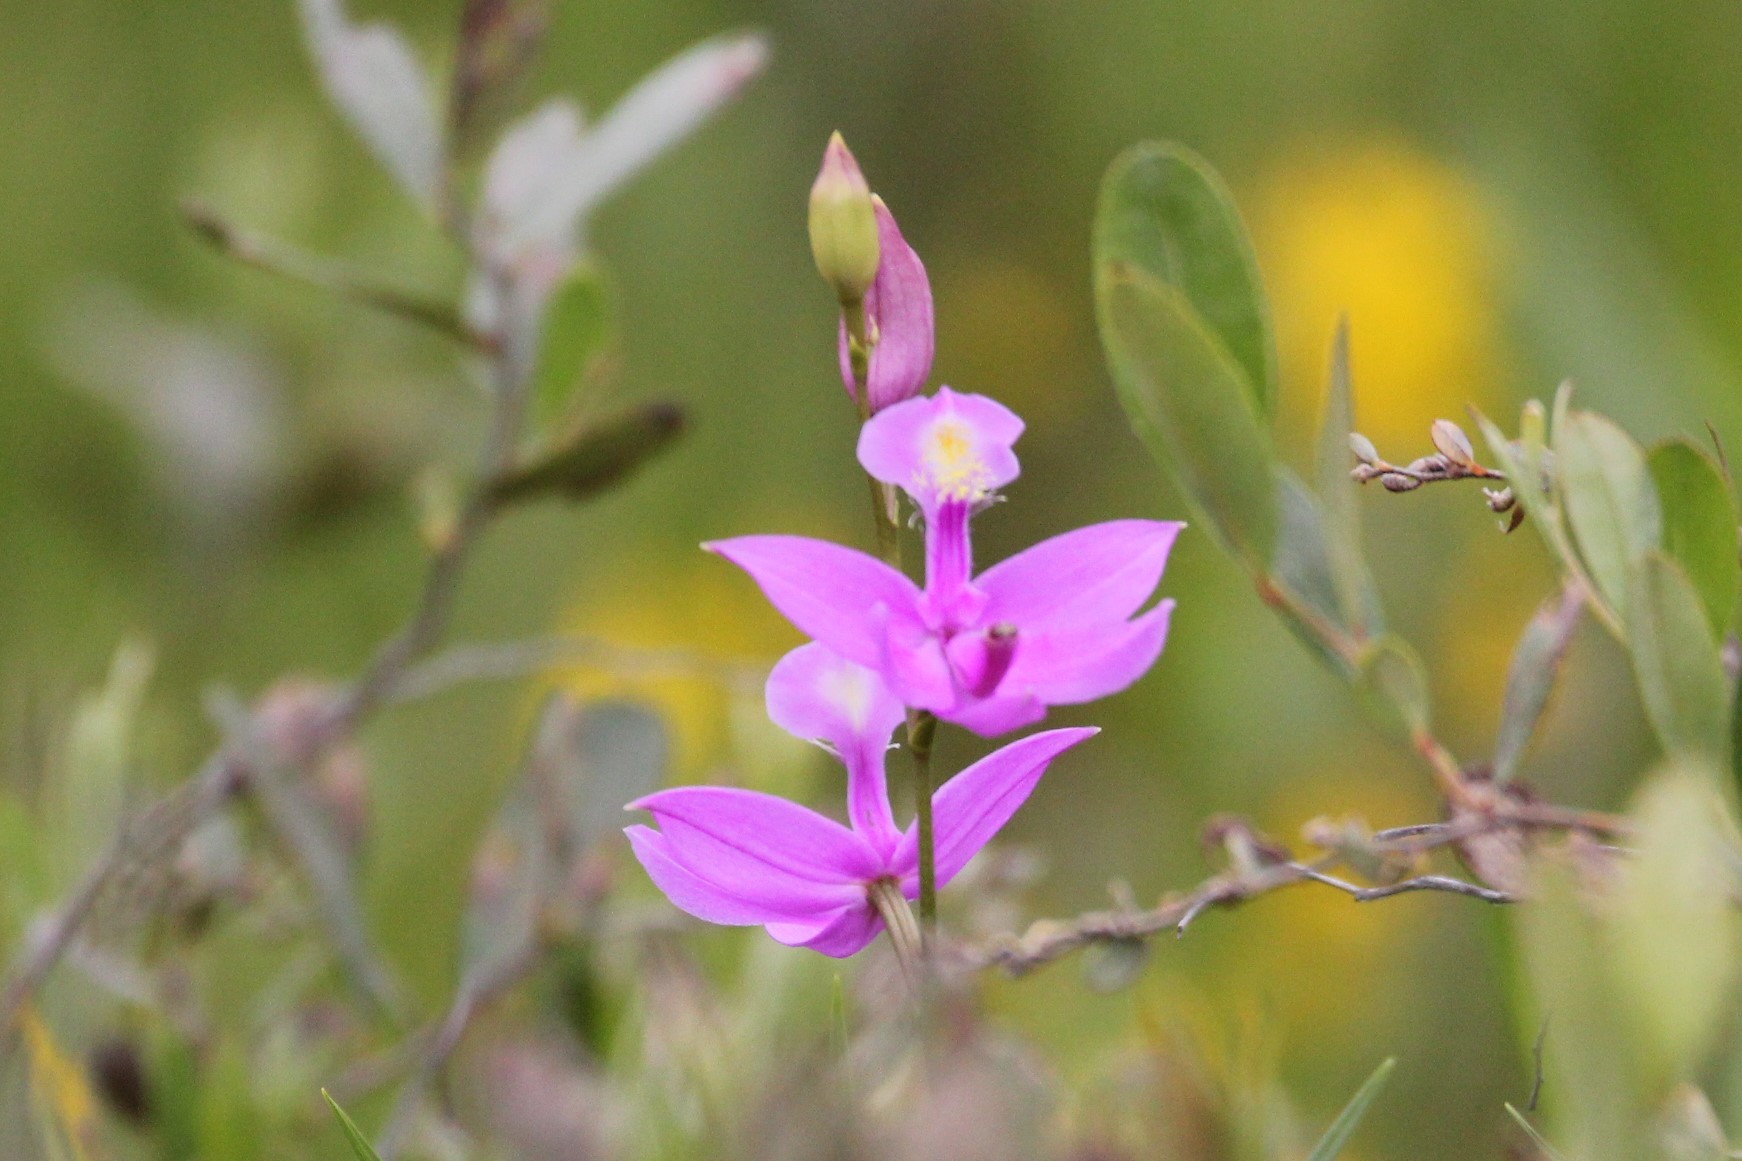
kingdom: Plantae
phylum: Tracheophyta
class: Liliopsida
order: Asparagales
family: Orchidaceae
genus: Calopogon
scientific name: Calopogon tuberosus
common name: Grass-pink
